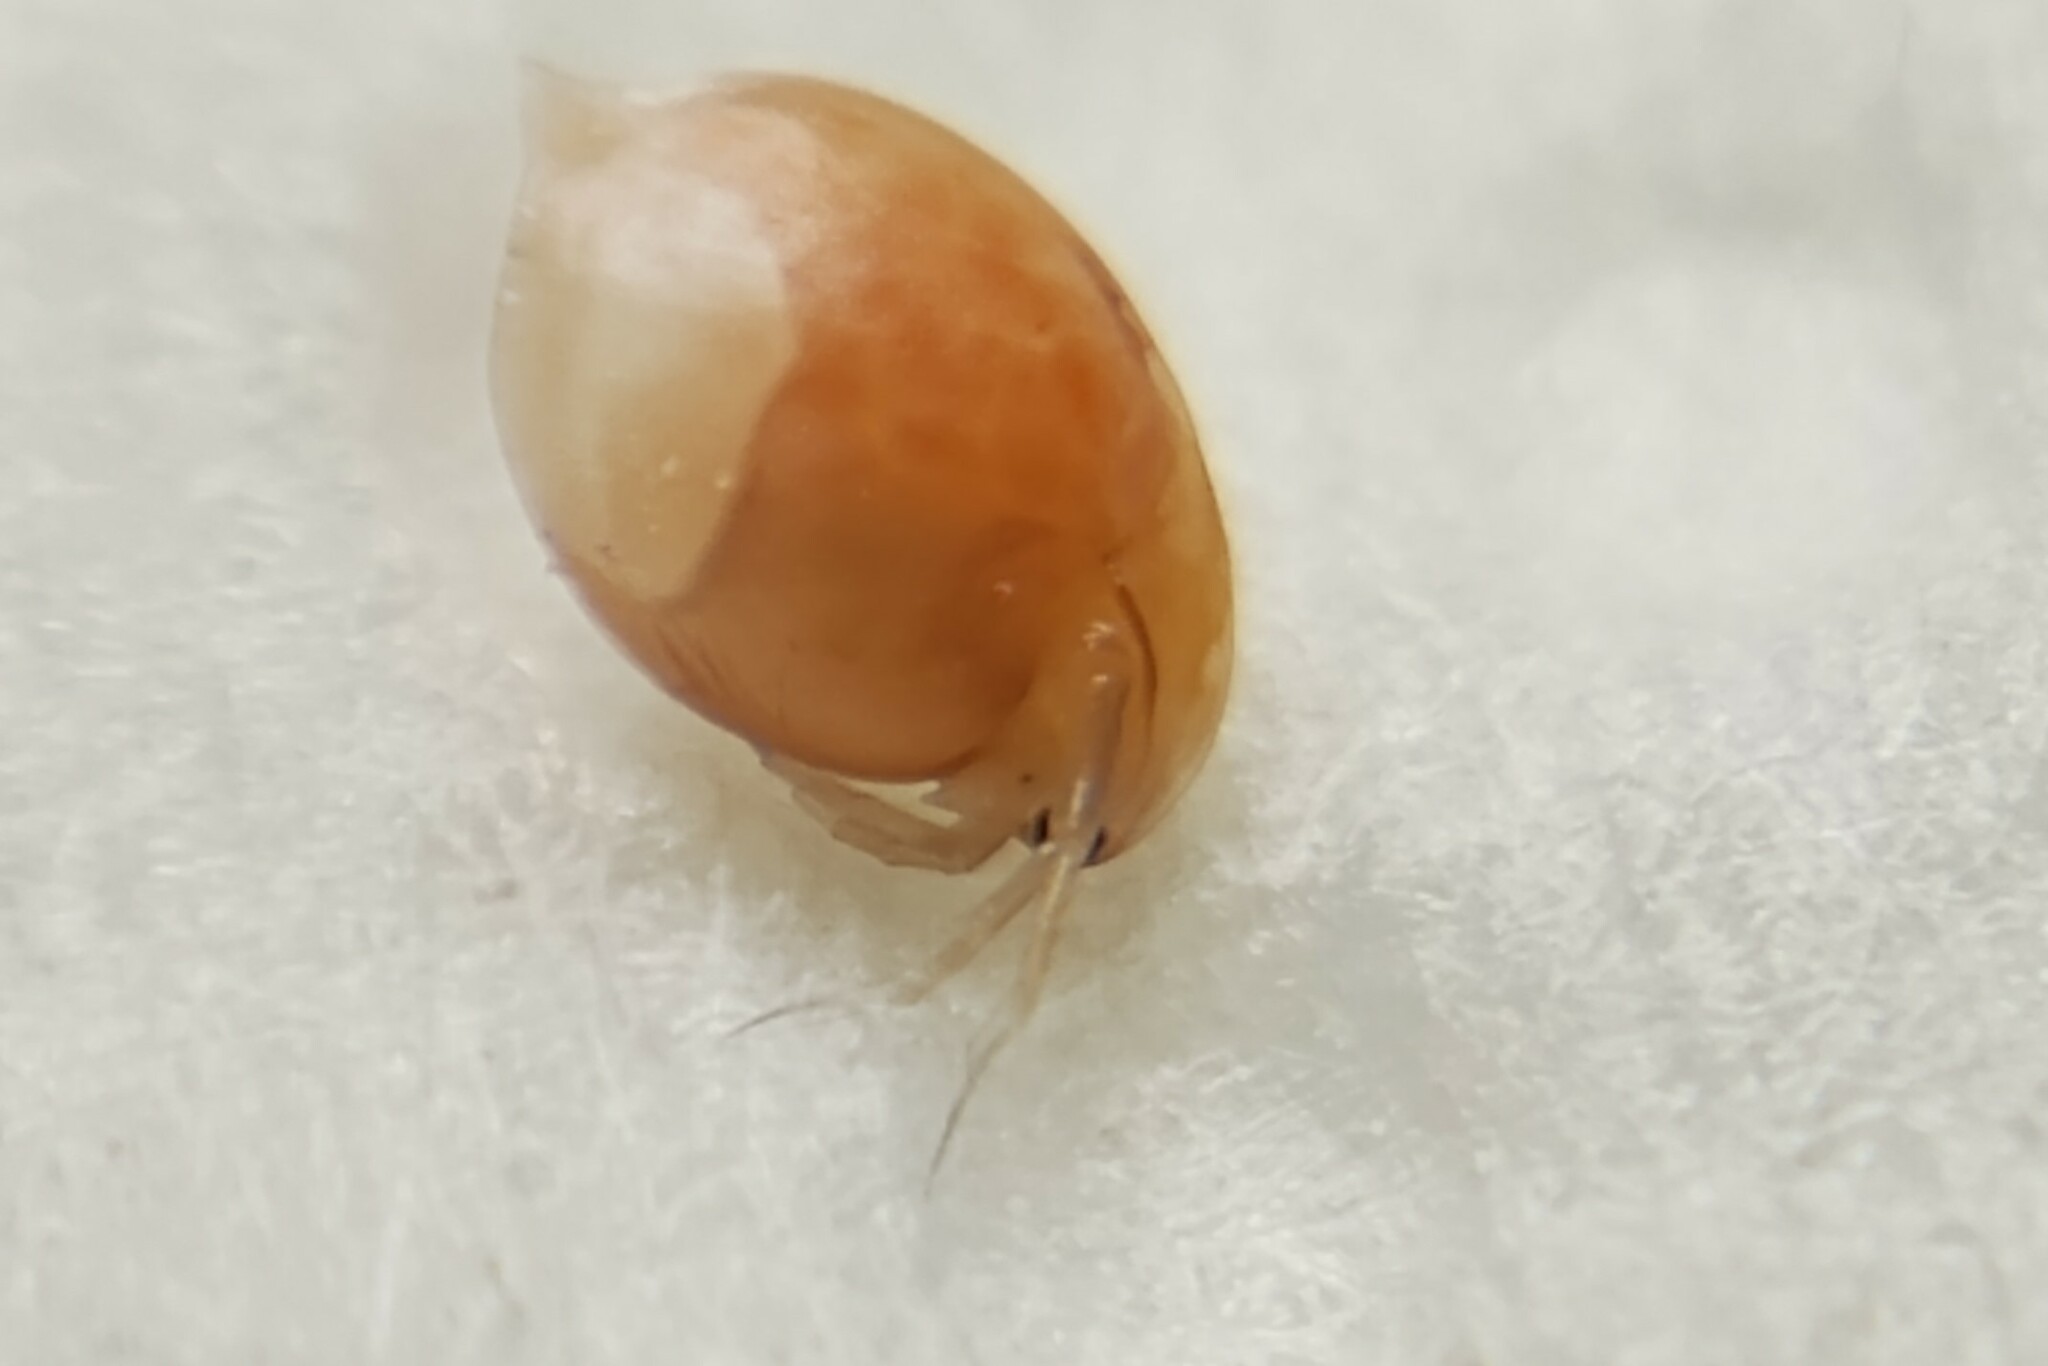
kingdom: Animalia
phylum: Arthropoda
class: Branchiopoda
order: Diplostraca
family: Daphniidae
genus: Daphnia
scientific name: Daphnia
